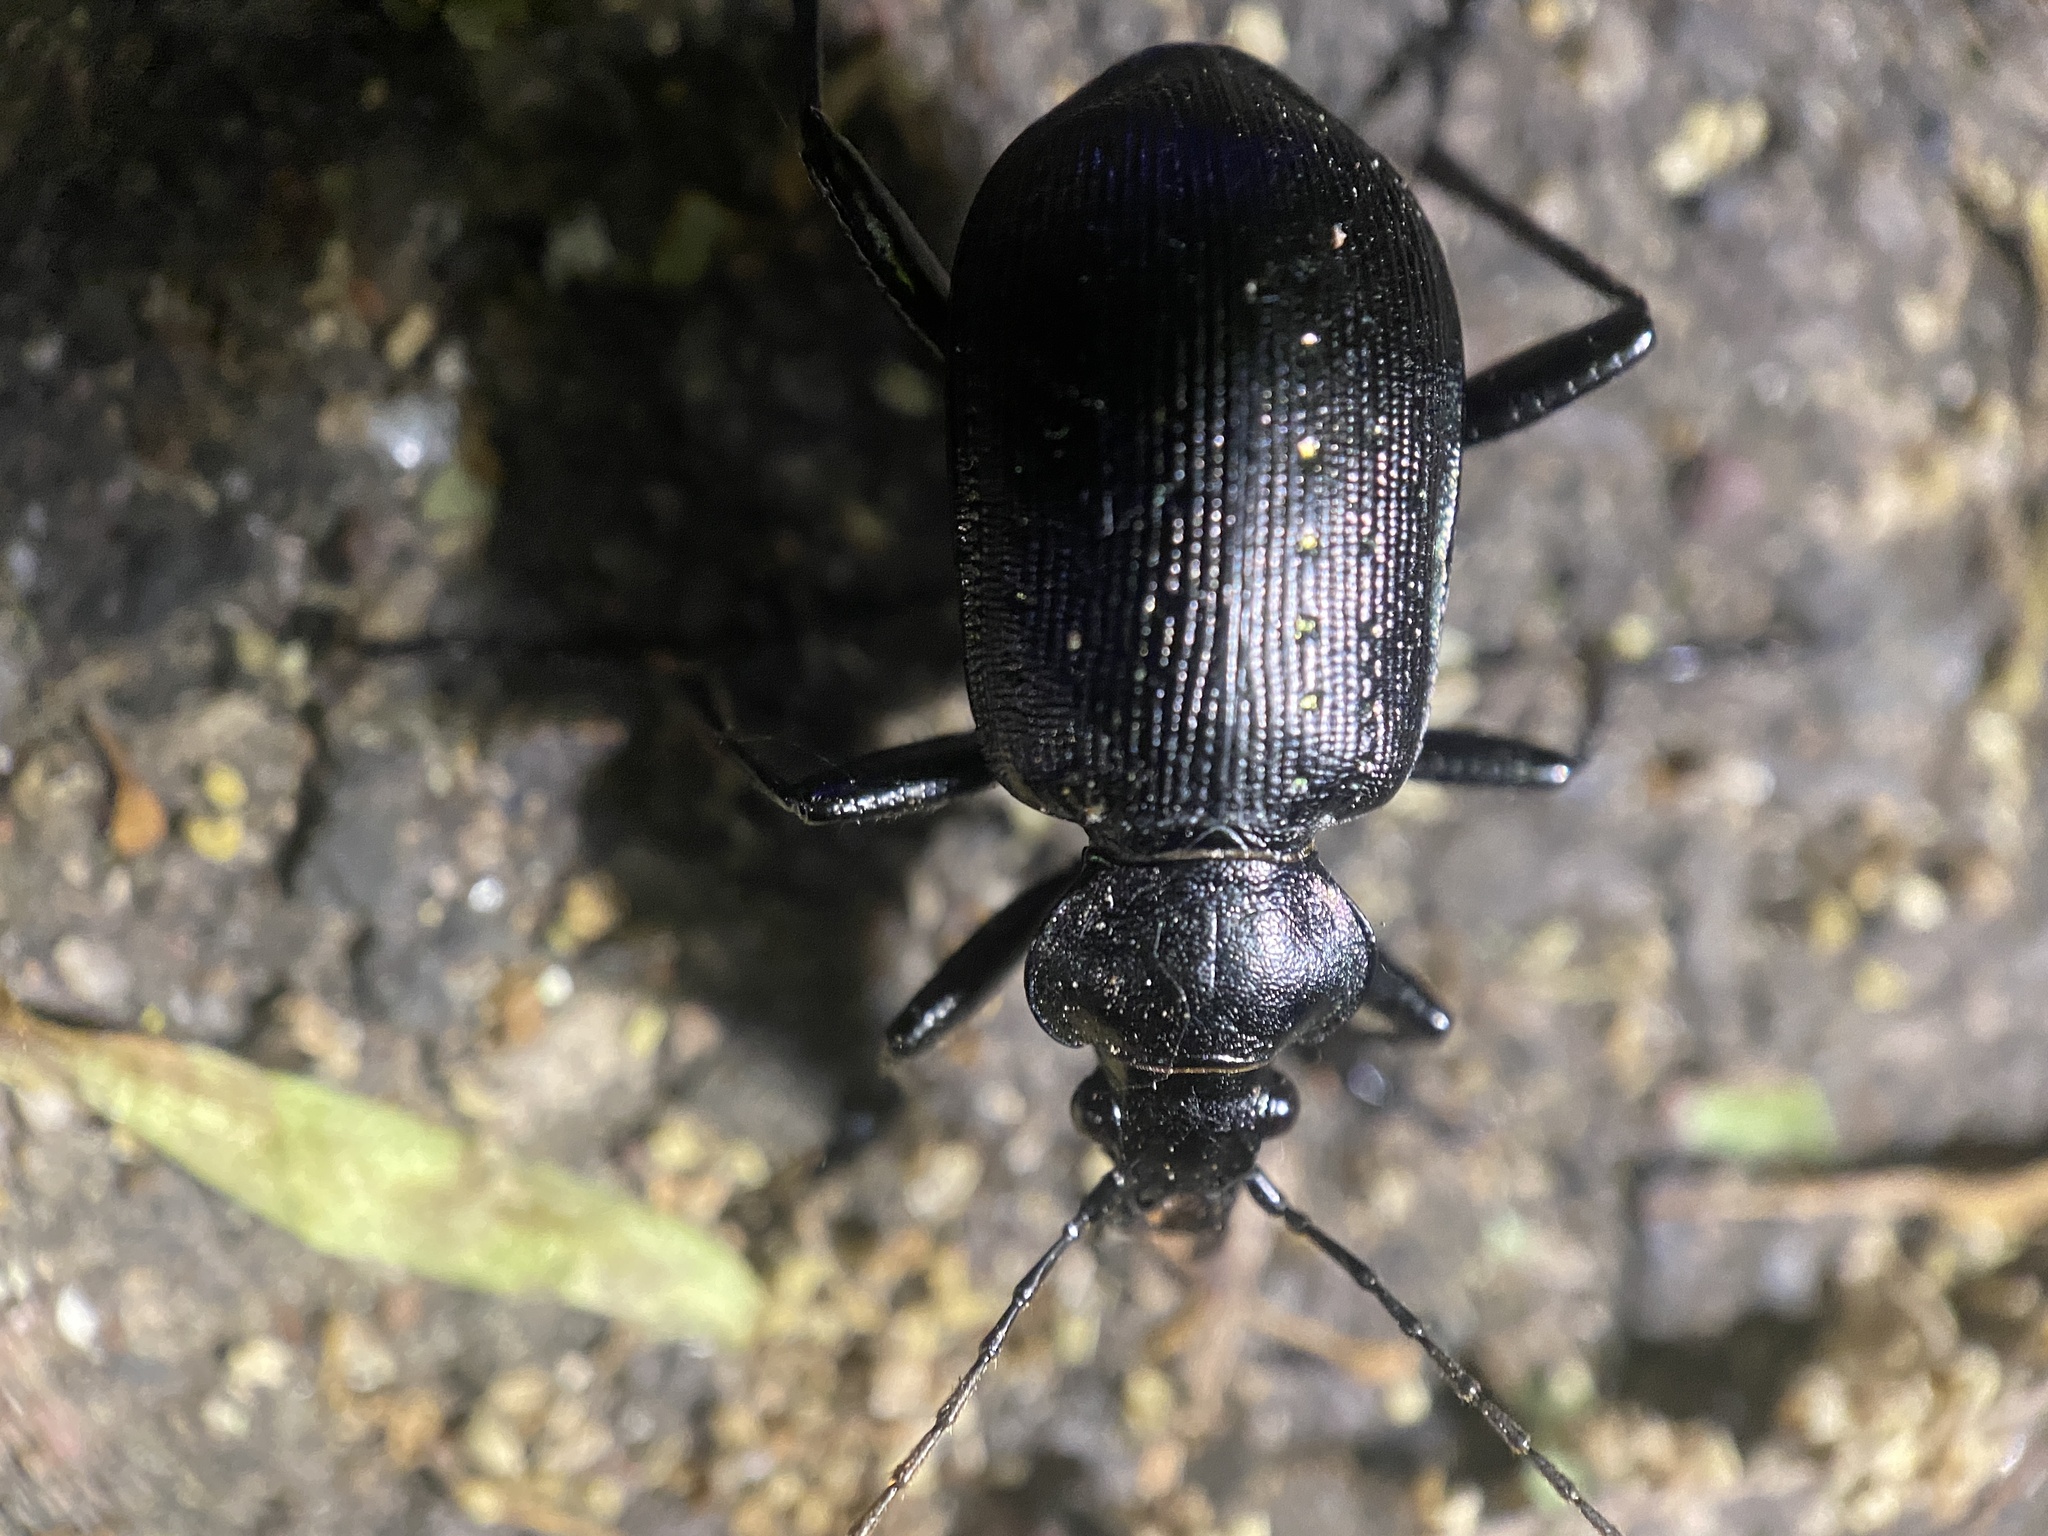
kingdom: Animalia
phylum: Arthropoda
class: Insecta
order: Coleoptera
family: Carabidae
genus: Calosoma
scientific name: Calosoma frigidum
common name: Cold-country caterpillar hunter
